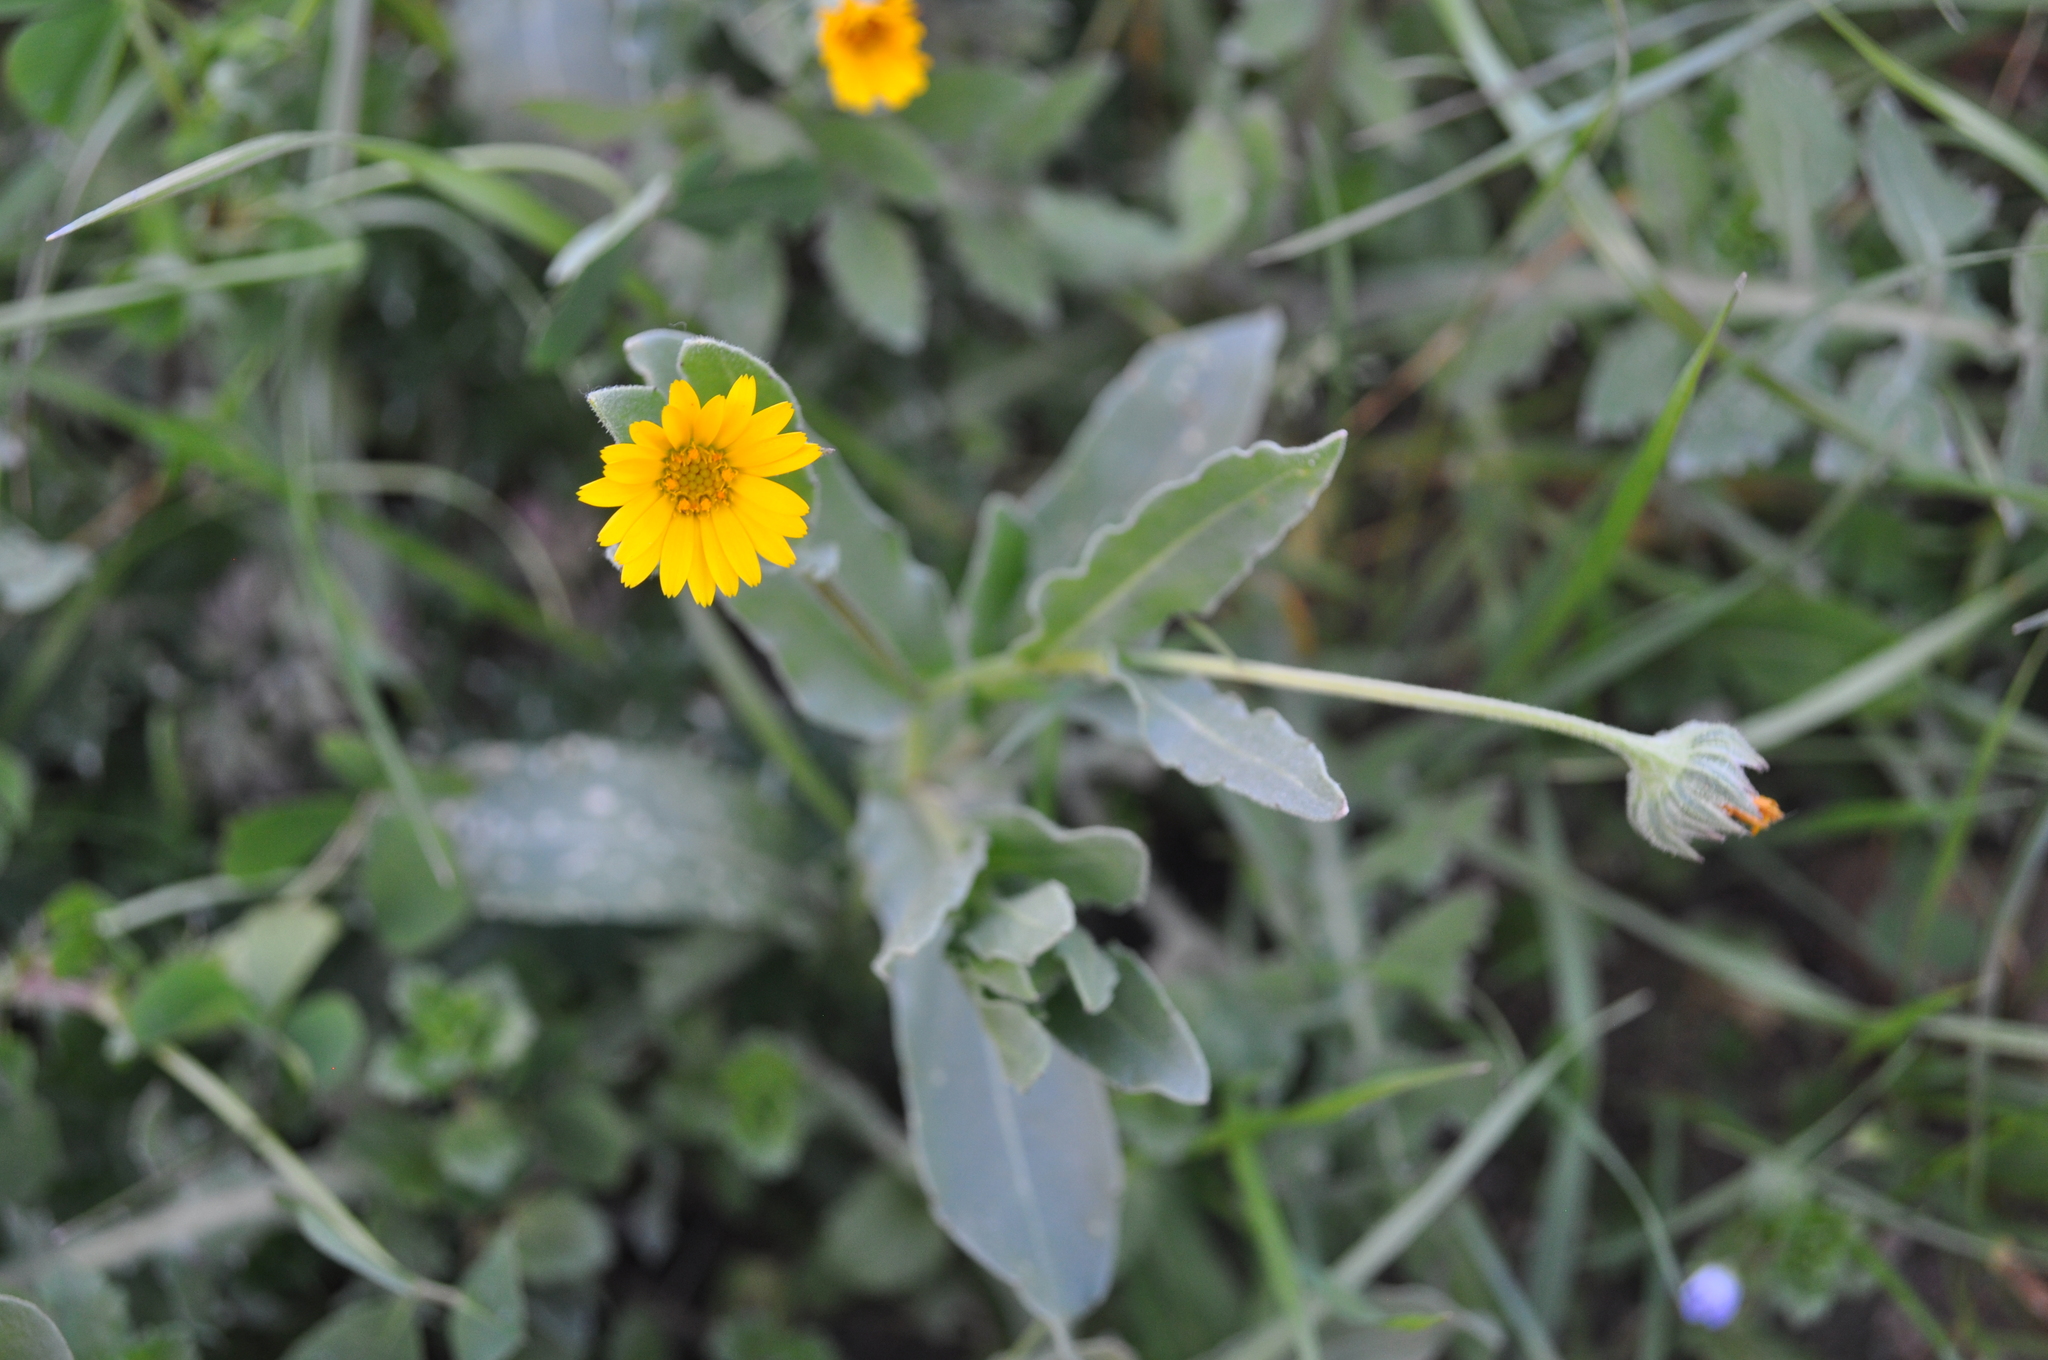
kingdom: Plantae
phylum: Tracheophyta
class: Magnoliopsida
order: Asterales
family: Asteraceae
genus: Calendula
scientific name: Calendula arvensis
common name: Field marigold
